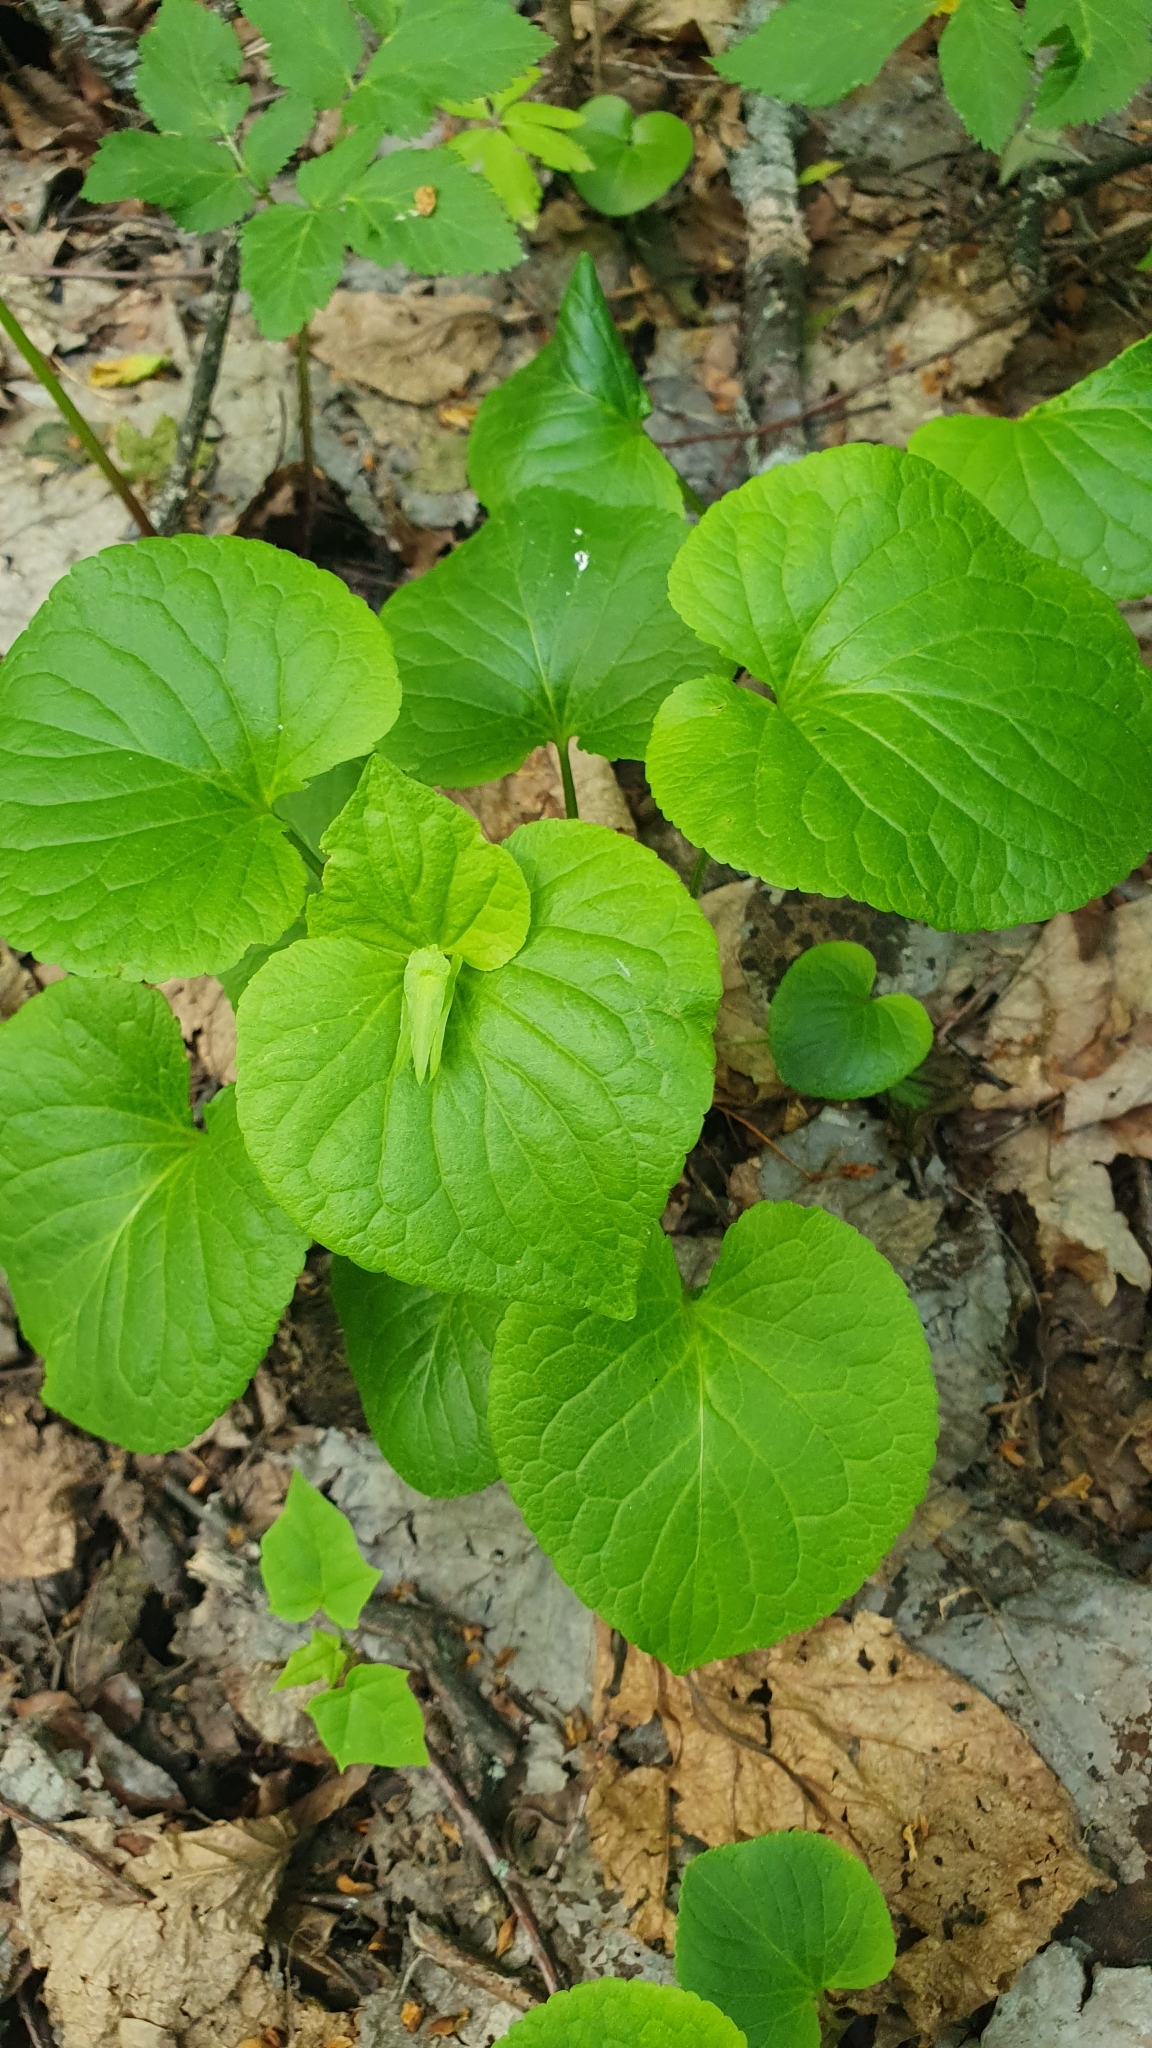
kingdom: Plantae
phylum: Tracheophyta
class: Magnoliopsida
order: Malpighiales
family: Violaceae
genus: Viola
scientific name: Viola mirabilis
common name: Wonder violet
